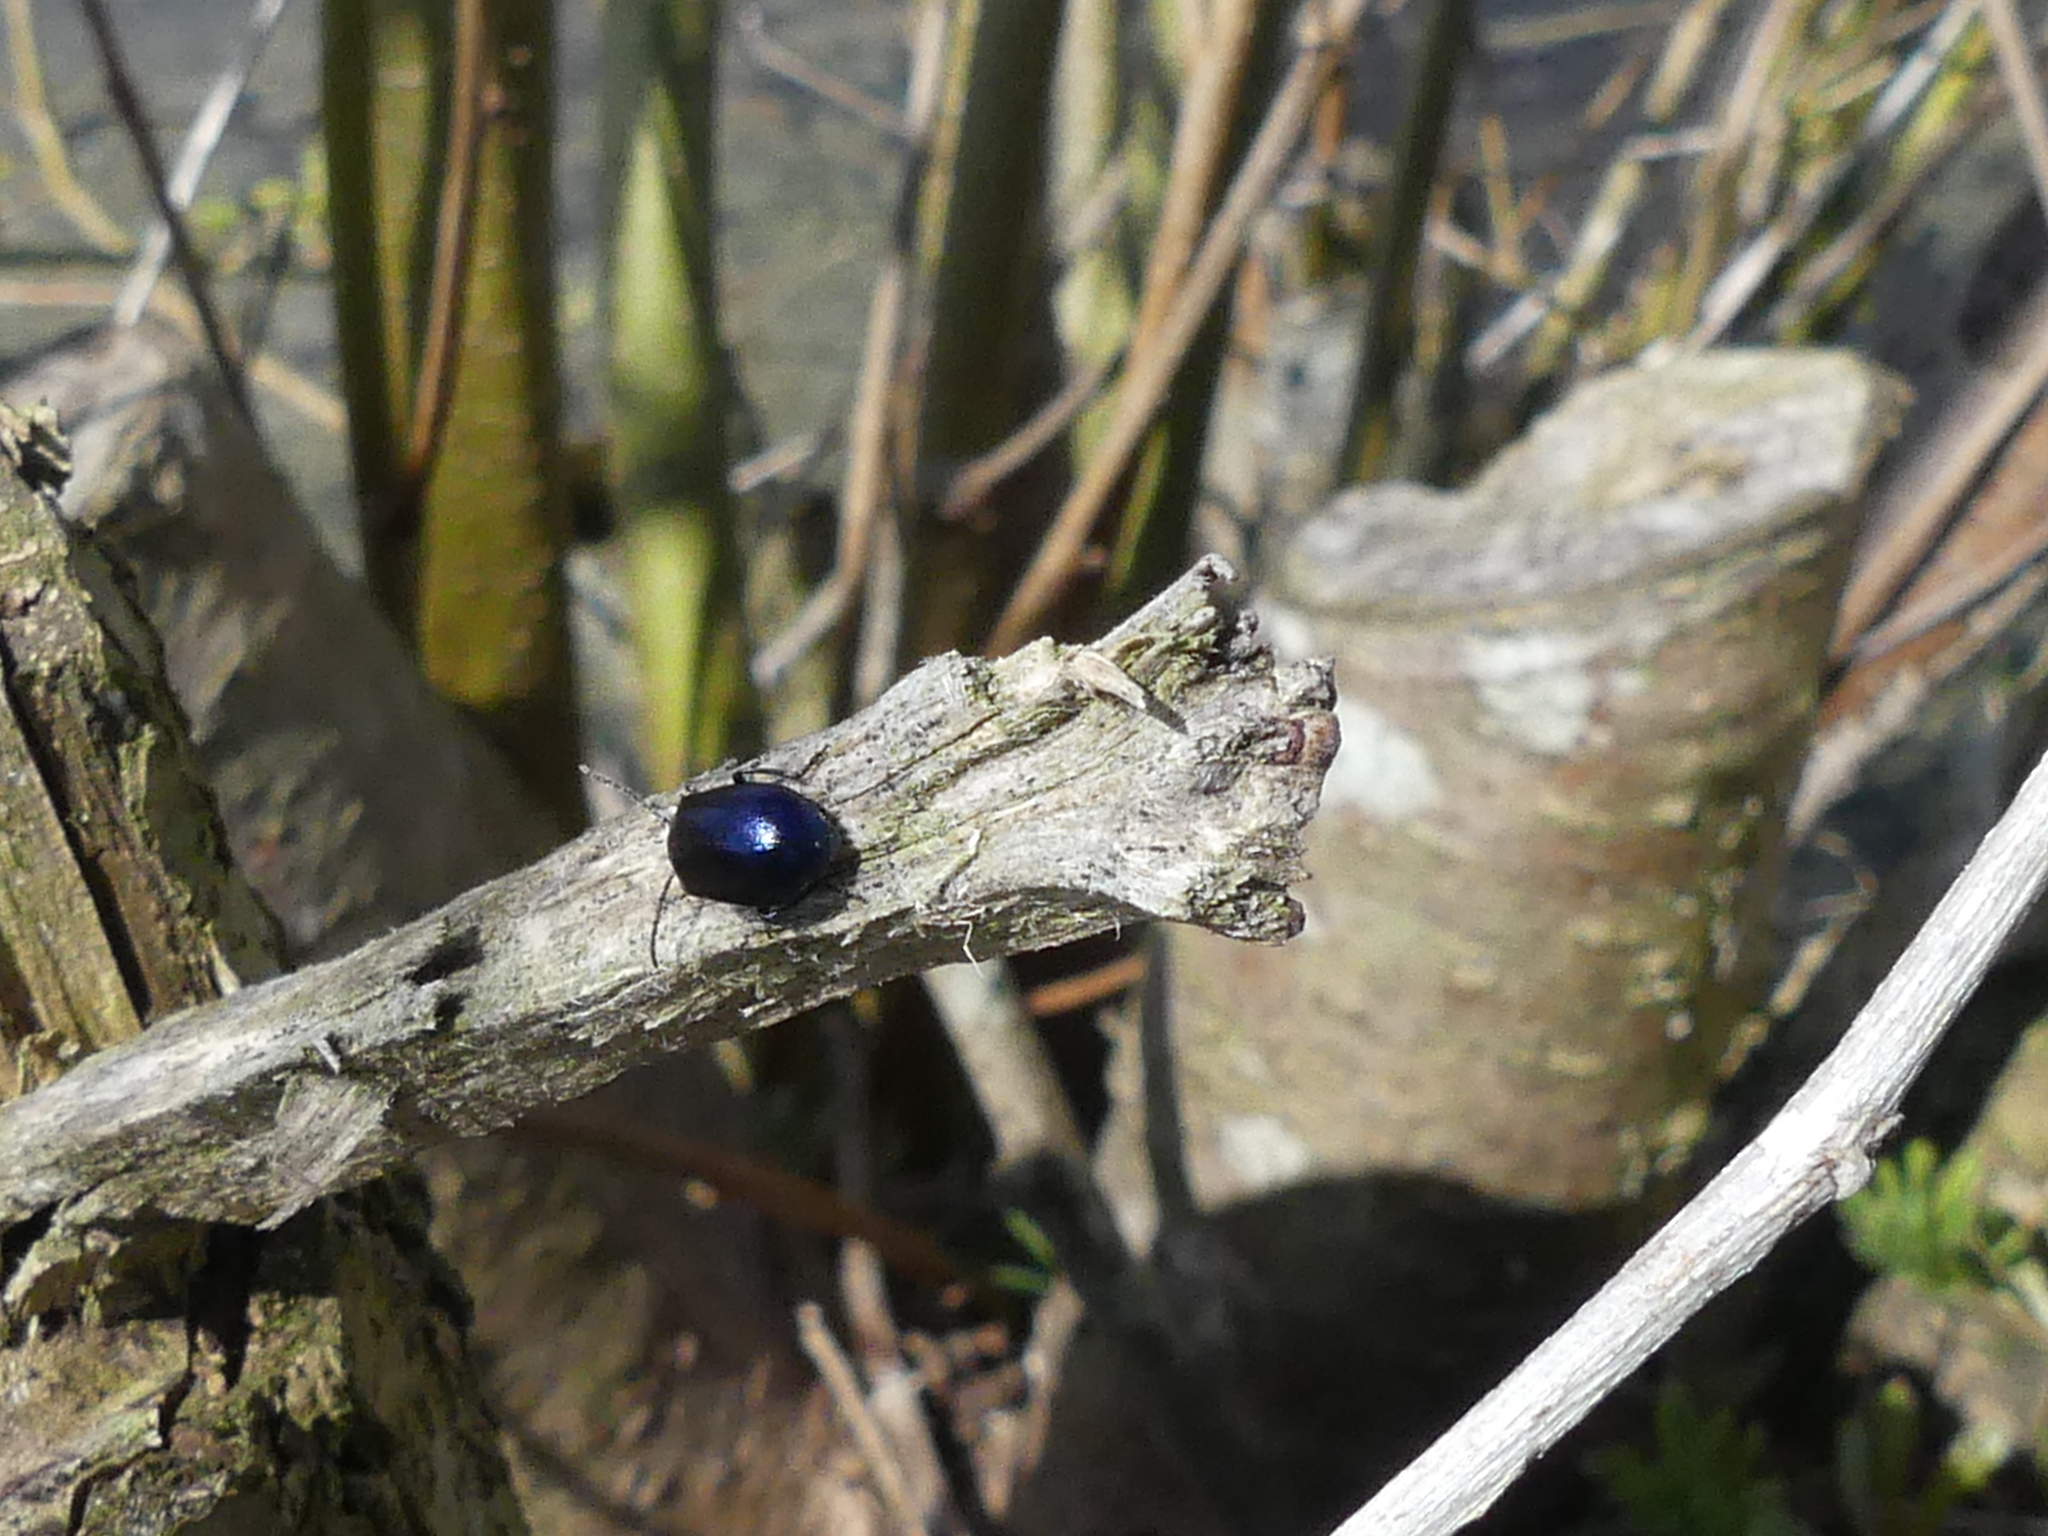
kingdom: Animalia
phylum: Arthropoda
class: Insecta
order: Coleoptera
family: Chrysomelidae
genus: Agelastica
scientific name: Agelastica alni
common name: Alder leaf beetle
